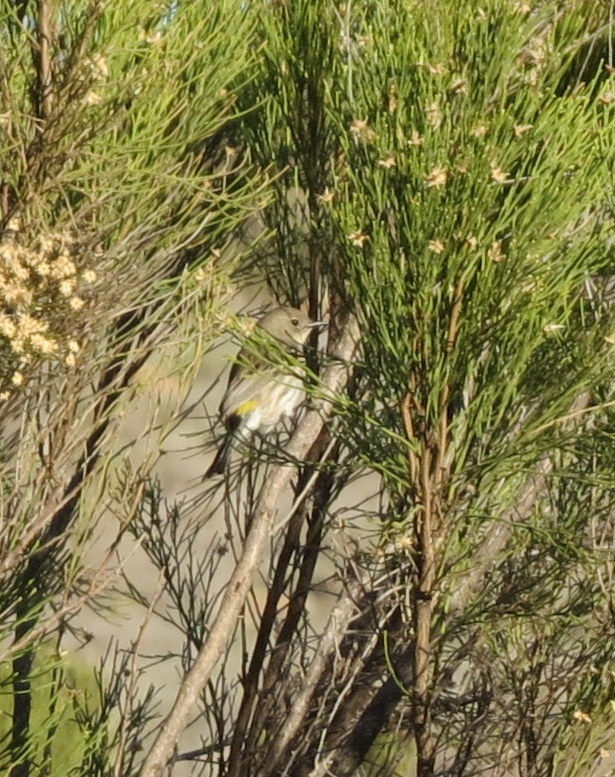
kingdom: Animalia
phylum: Chordata
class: Aves
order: Passeriformes
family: Parulidae
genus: Setophaga
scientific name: Setophaga coronata
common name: Myrtle warbler
